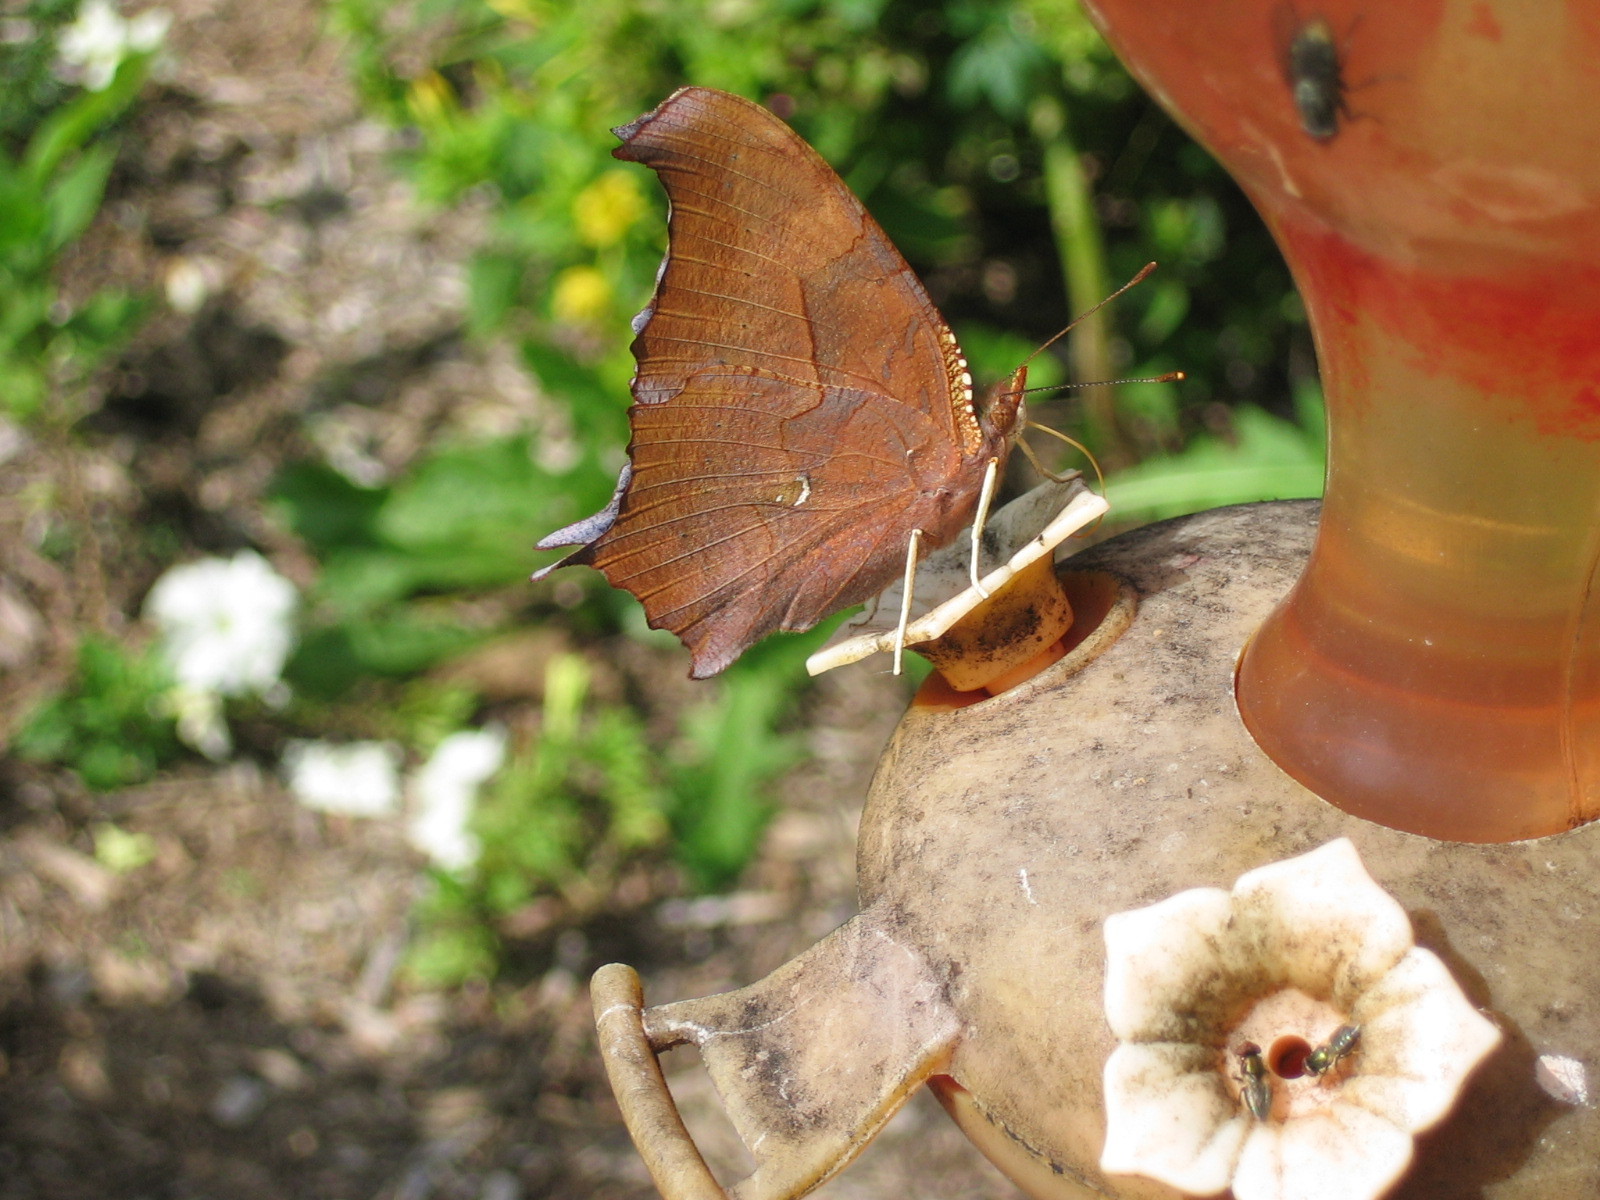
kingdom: Animalia
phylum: Arthropoda
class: Insecta
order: Lepidoptera
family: Nymphalidae
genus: Polygonia
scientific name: Polygonia interrogationis
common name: Question mark
